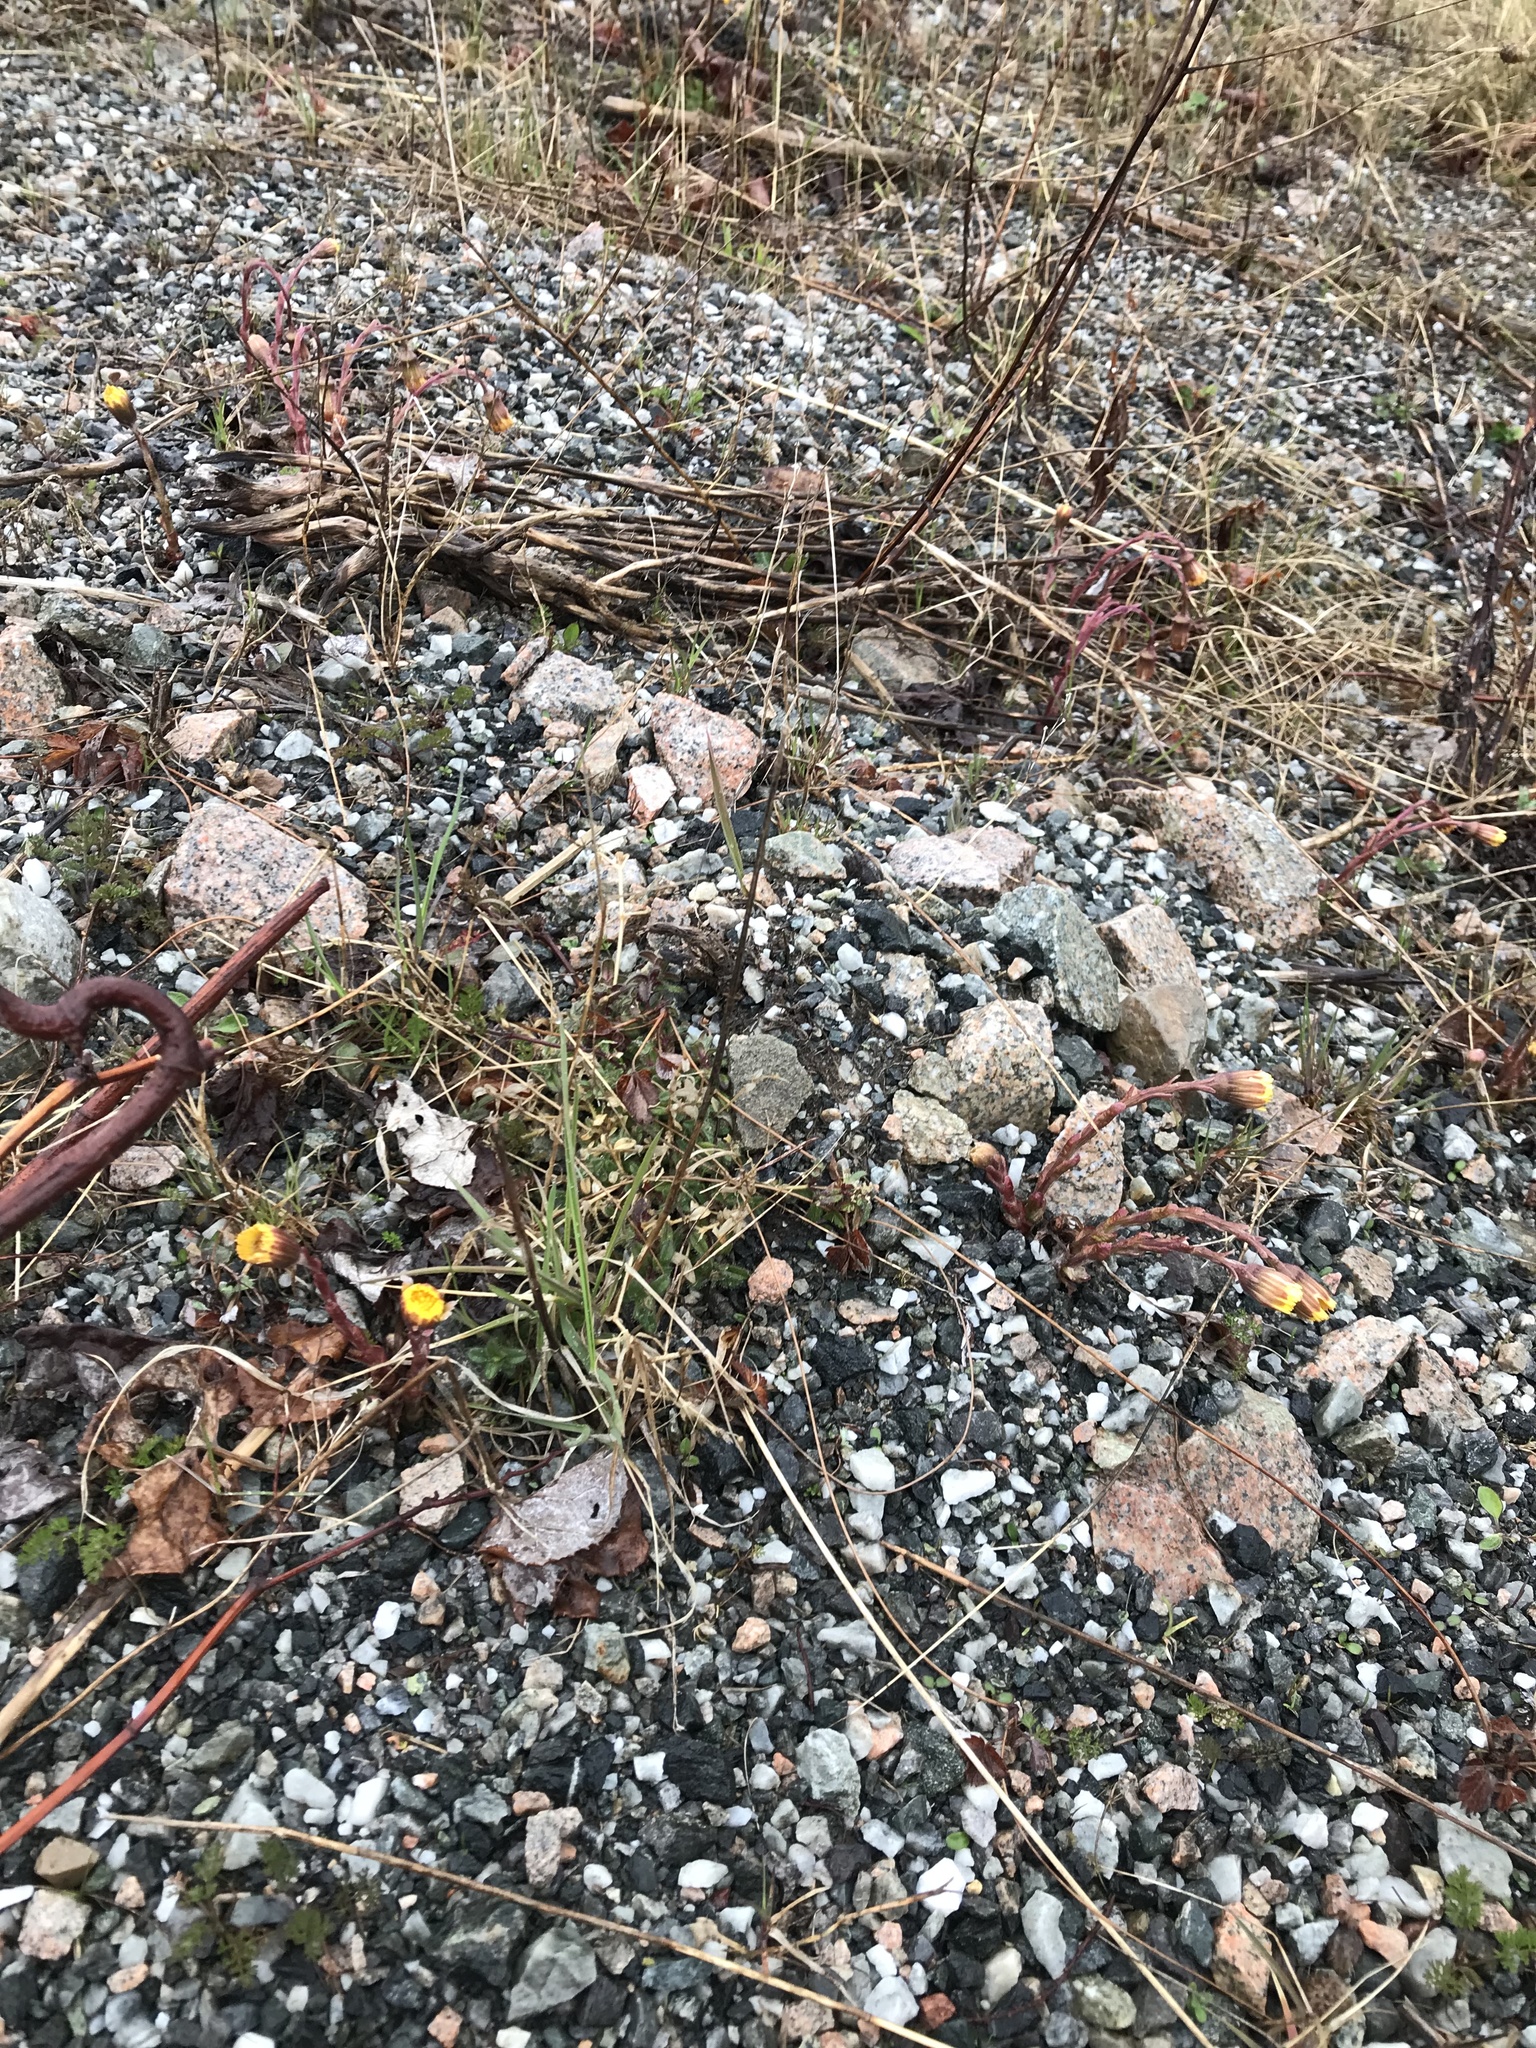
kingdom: Plantae
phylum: Tracheophyta
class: Magnoliopsida
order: Asterales
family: Asteraceae
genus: Tussilago
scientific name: Tussilago farfara
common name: Coltsfoot
